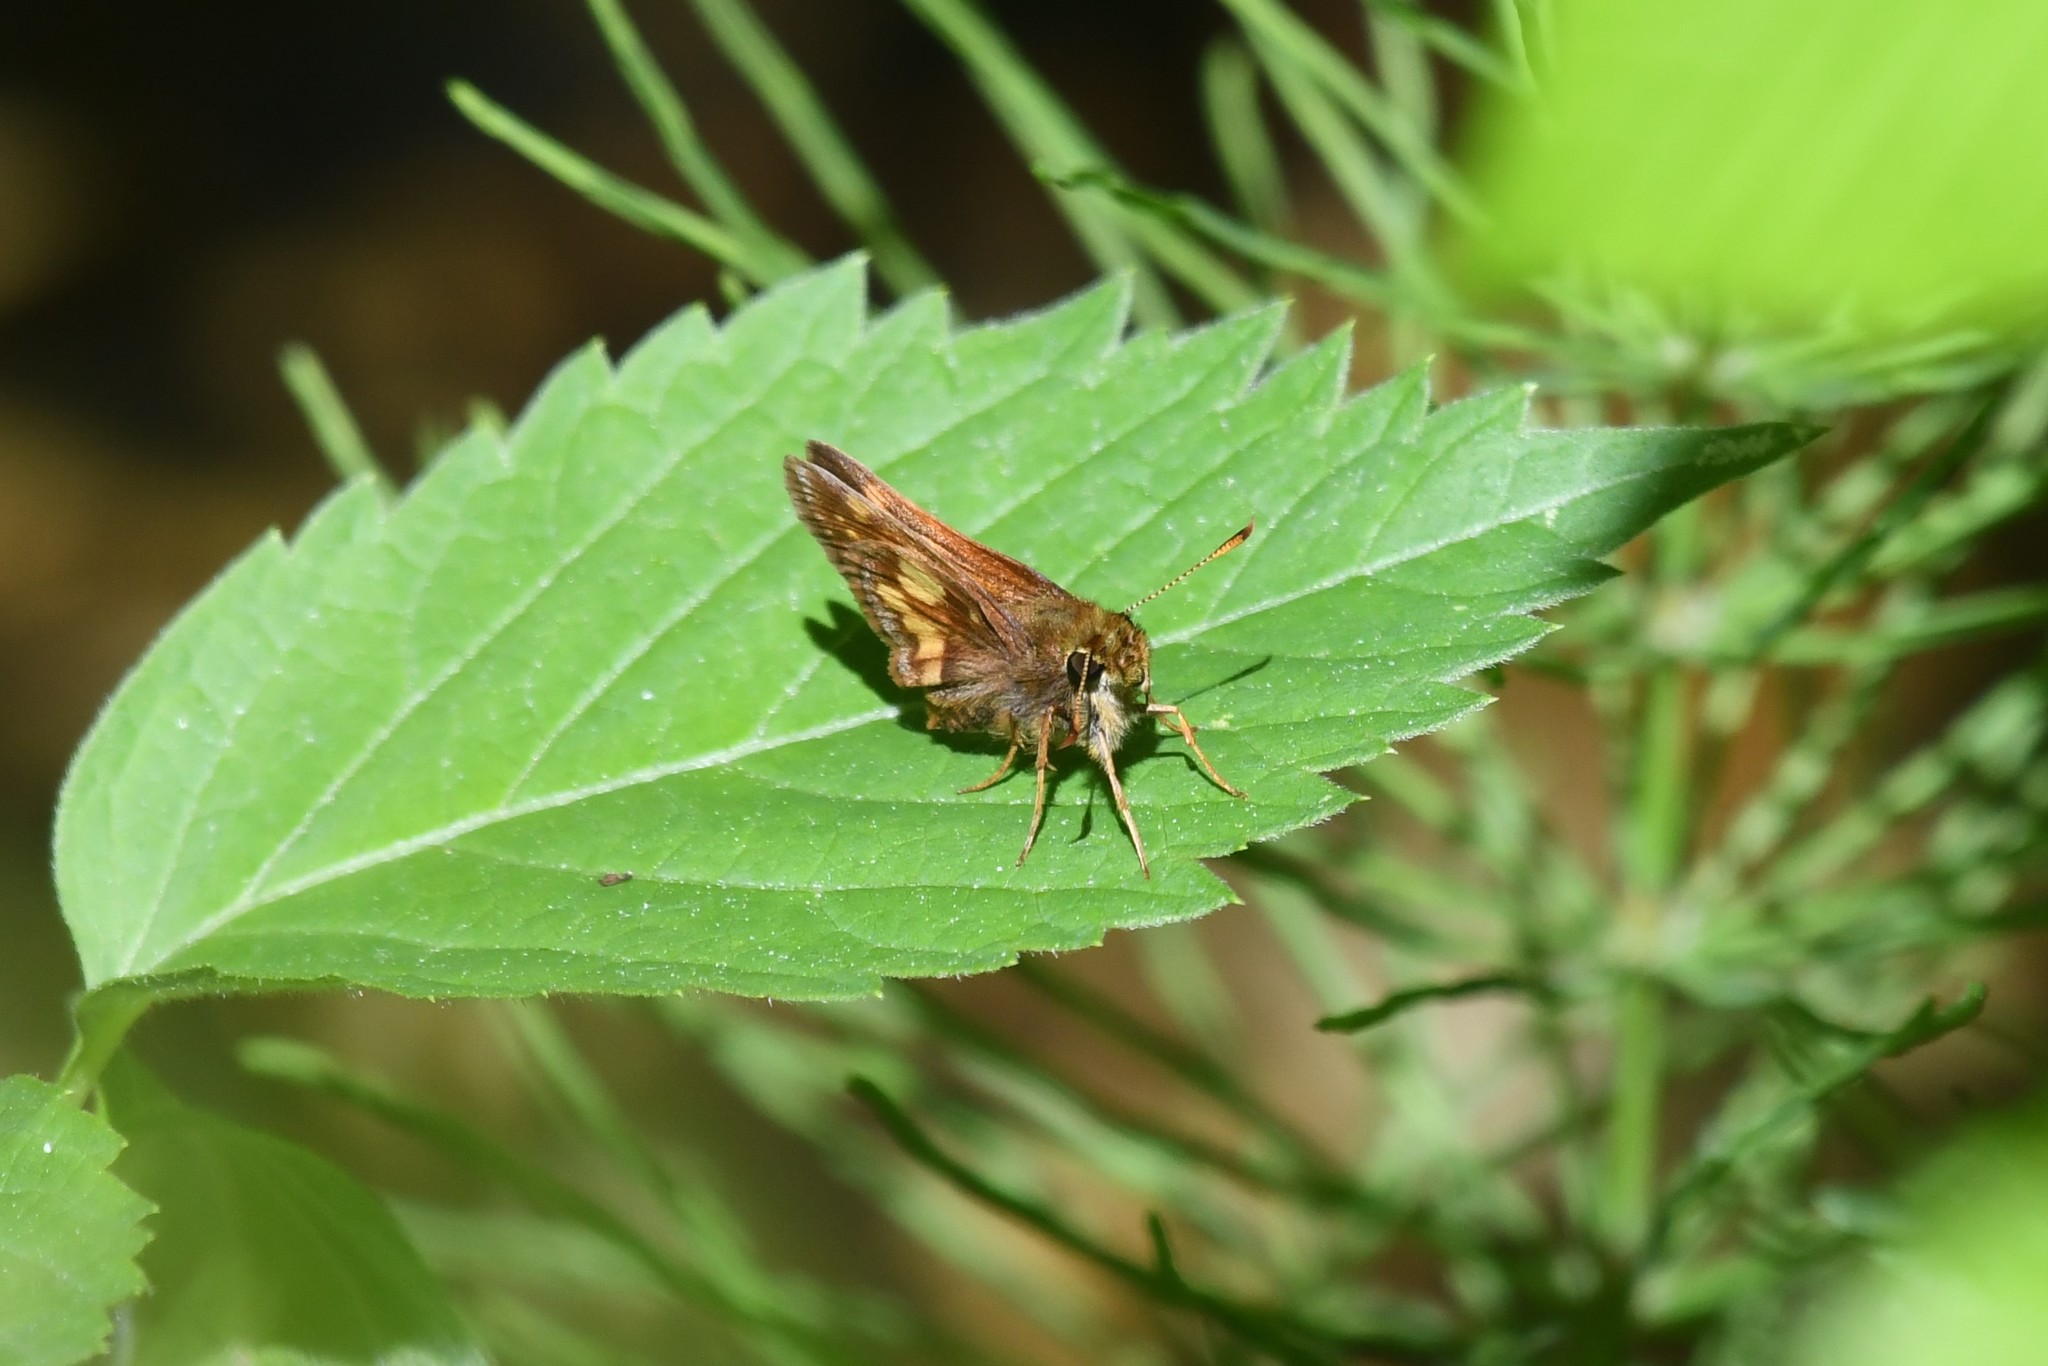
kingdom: Animalia
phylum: Arthropoda
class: Insecta
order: Lepidoptera
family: Hesperiidae
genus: Lon
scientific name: Lon hobomok
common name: Hobomok skipper
